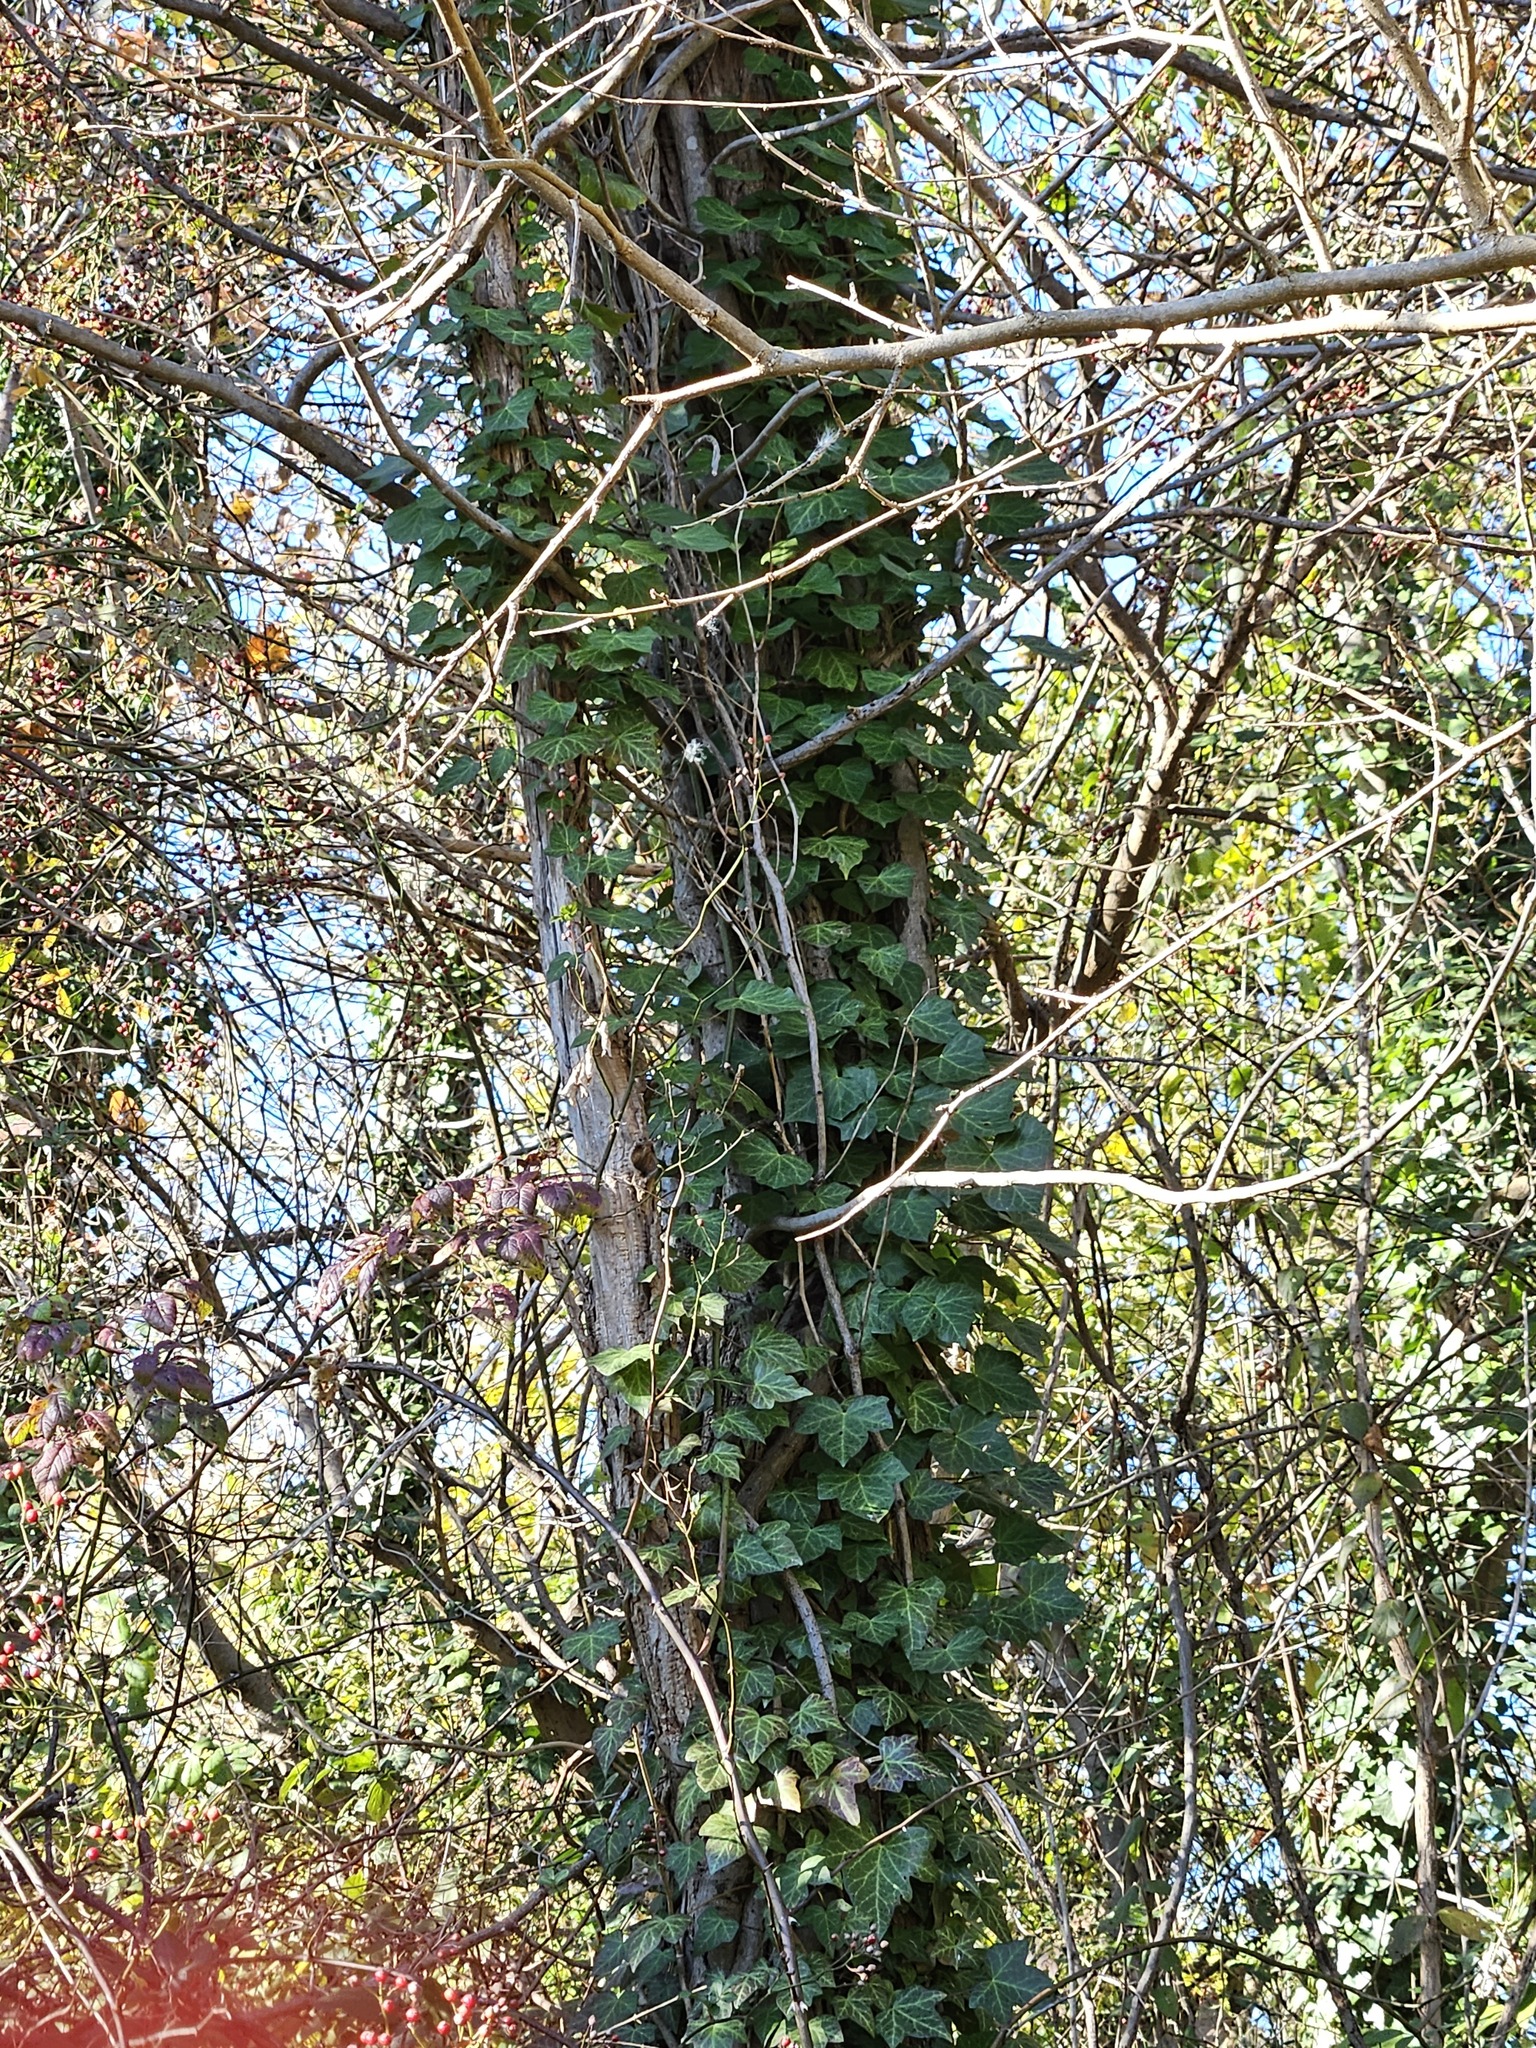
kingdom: Plantae
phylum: Tracheophyta
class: Magnoliopsida
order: Apiales
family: Araliaceae
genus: Hedera
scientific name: Hedera helix
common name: Ivy
